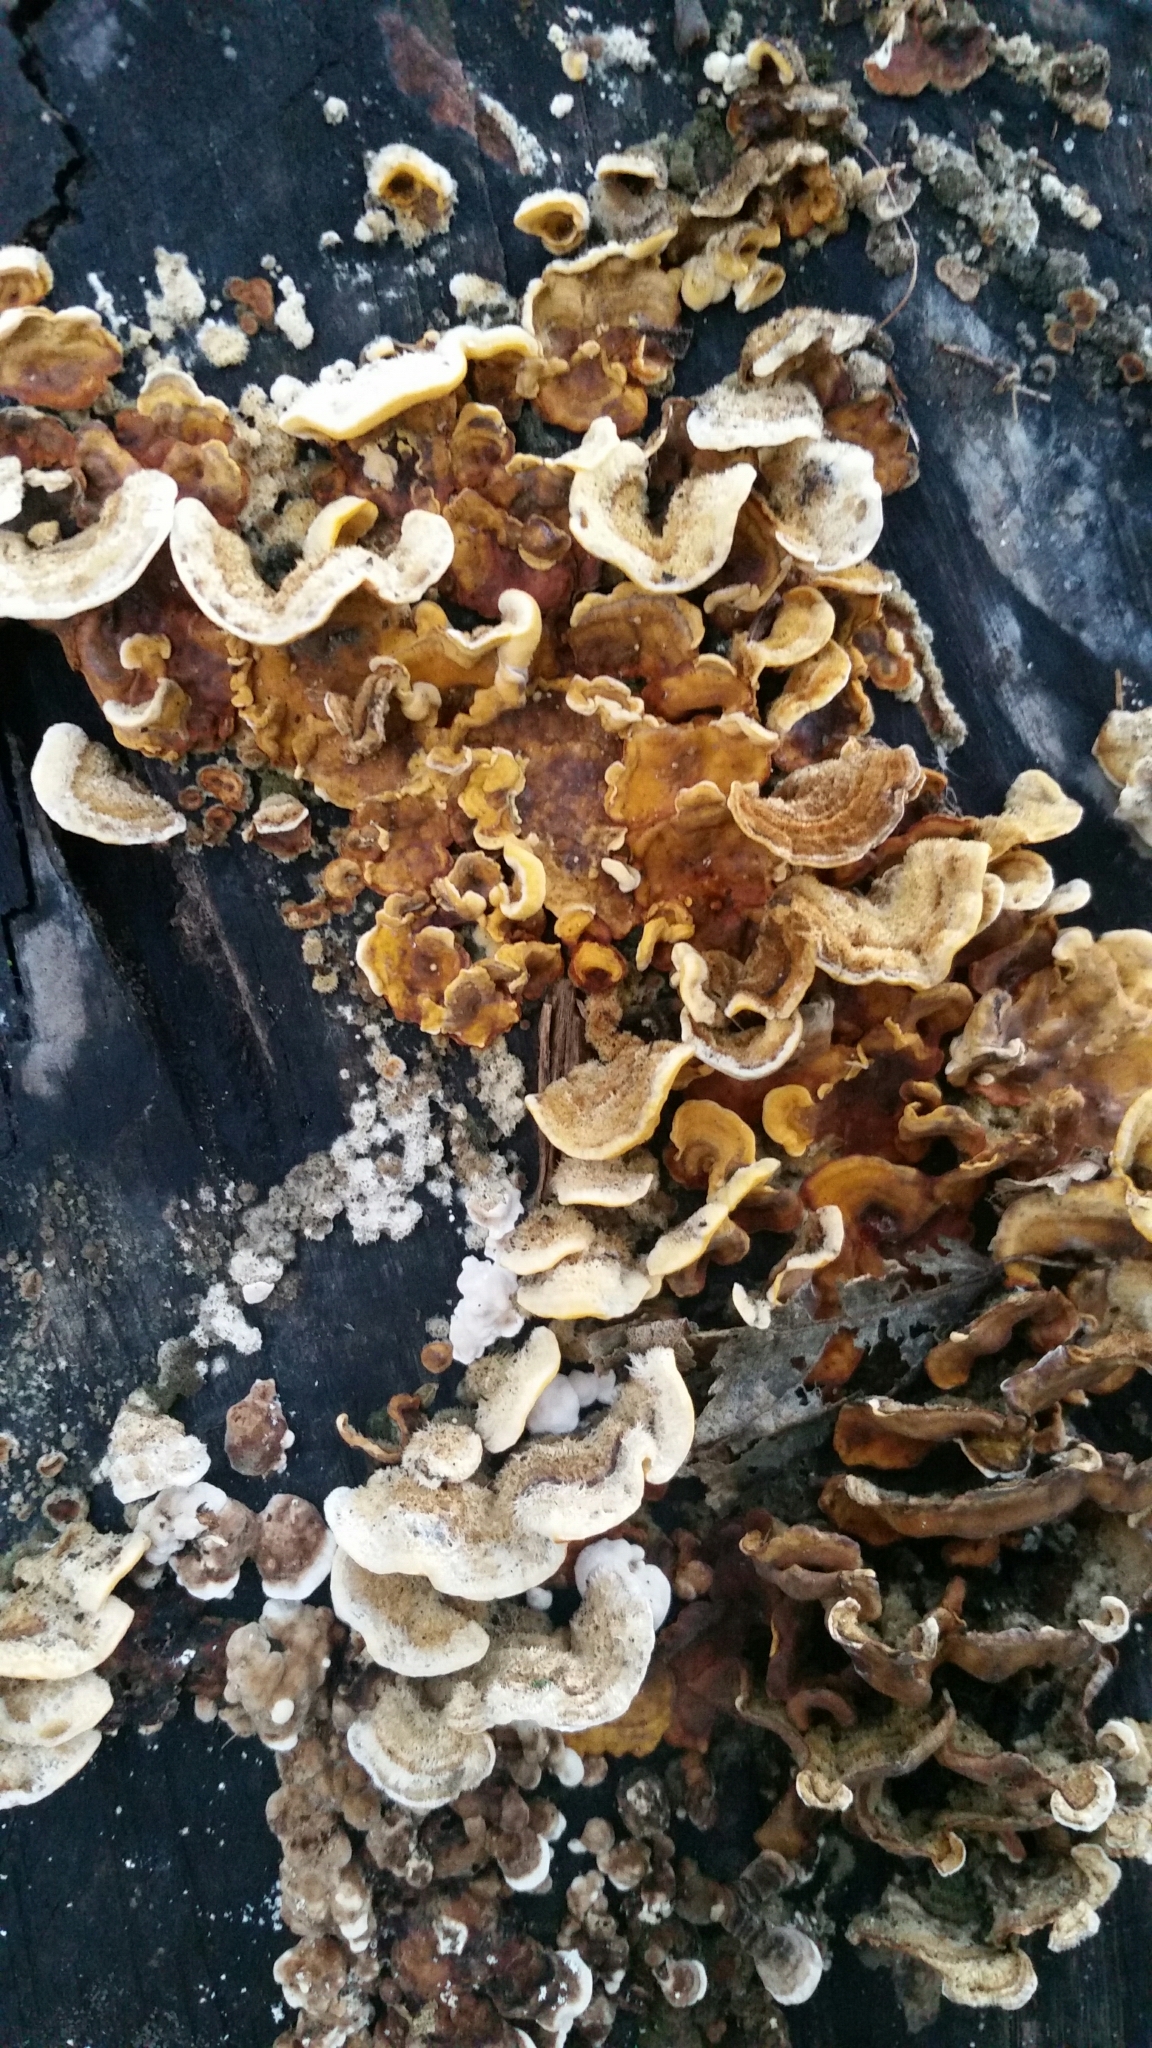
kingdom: Fungi
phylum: Basidiomycota
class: Agaricomycetes
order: Russulales
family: Stereaceae
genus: Stereum
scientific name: Stereum hirsutum
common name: Hairy curtain crust
